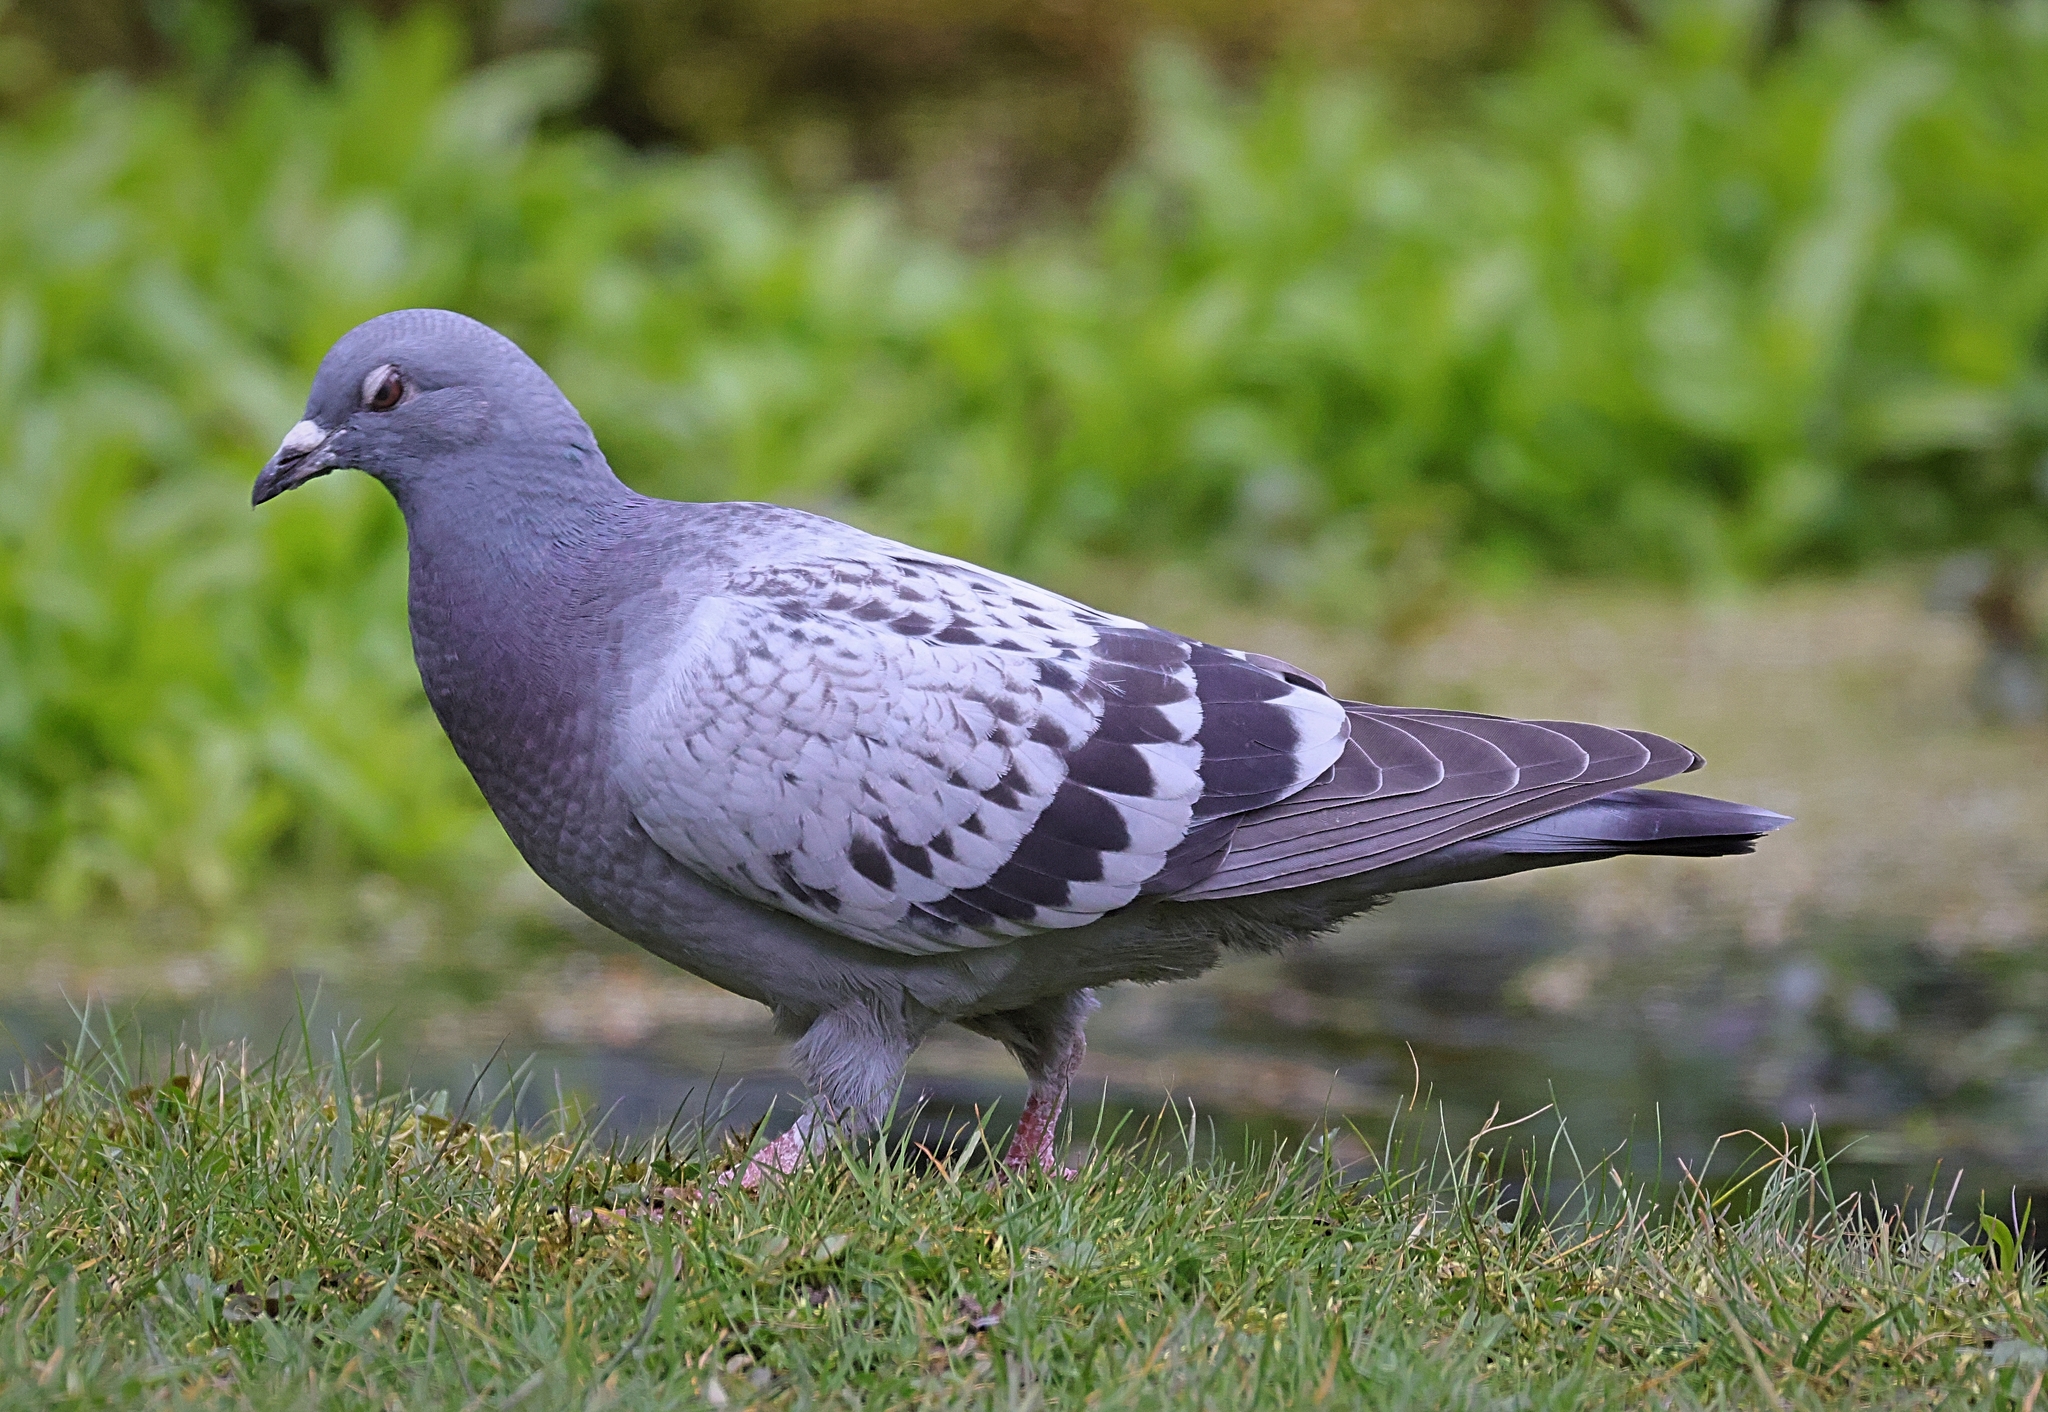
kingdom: Animalia
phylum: Chordata
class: Aves
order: Columbiformes
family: Columbidae
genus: Columba
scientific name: Columba livia
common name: Rock pigeon
